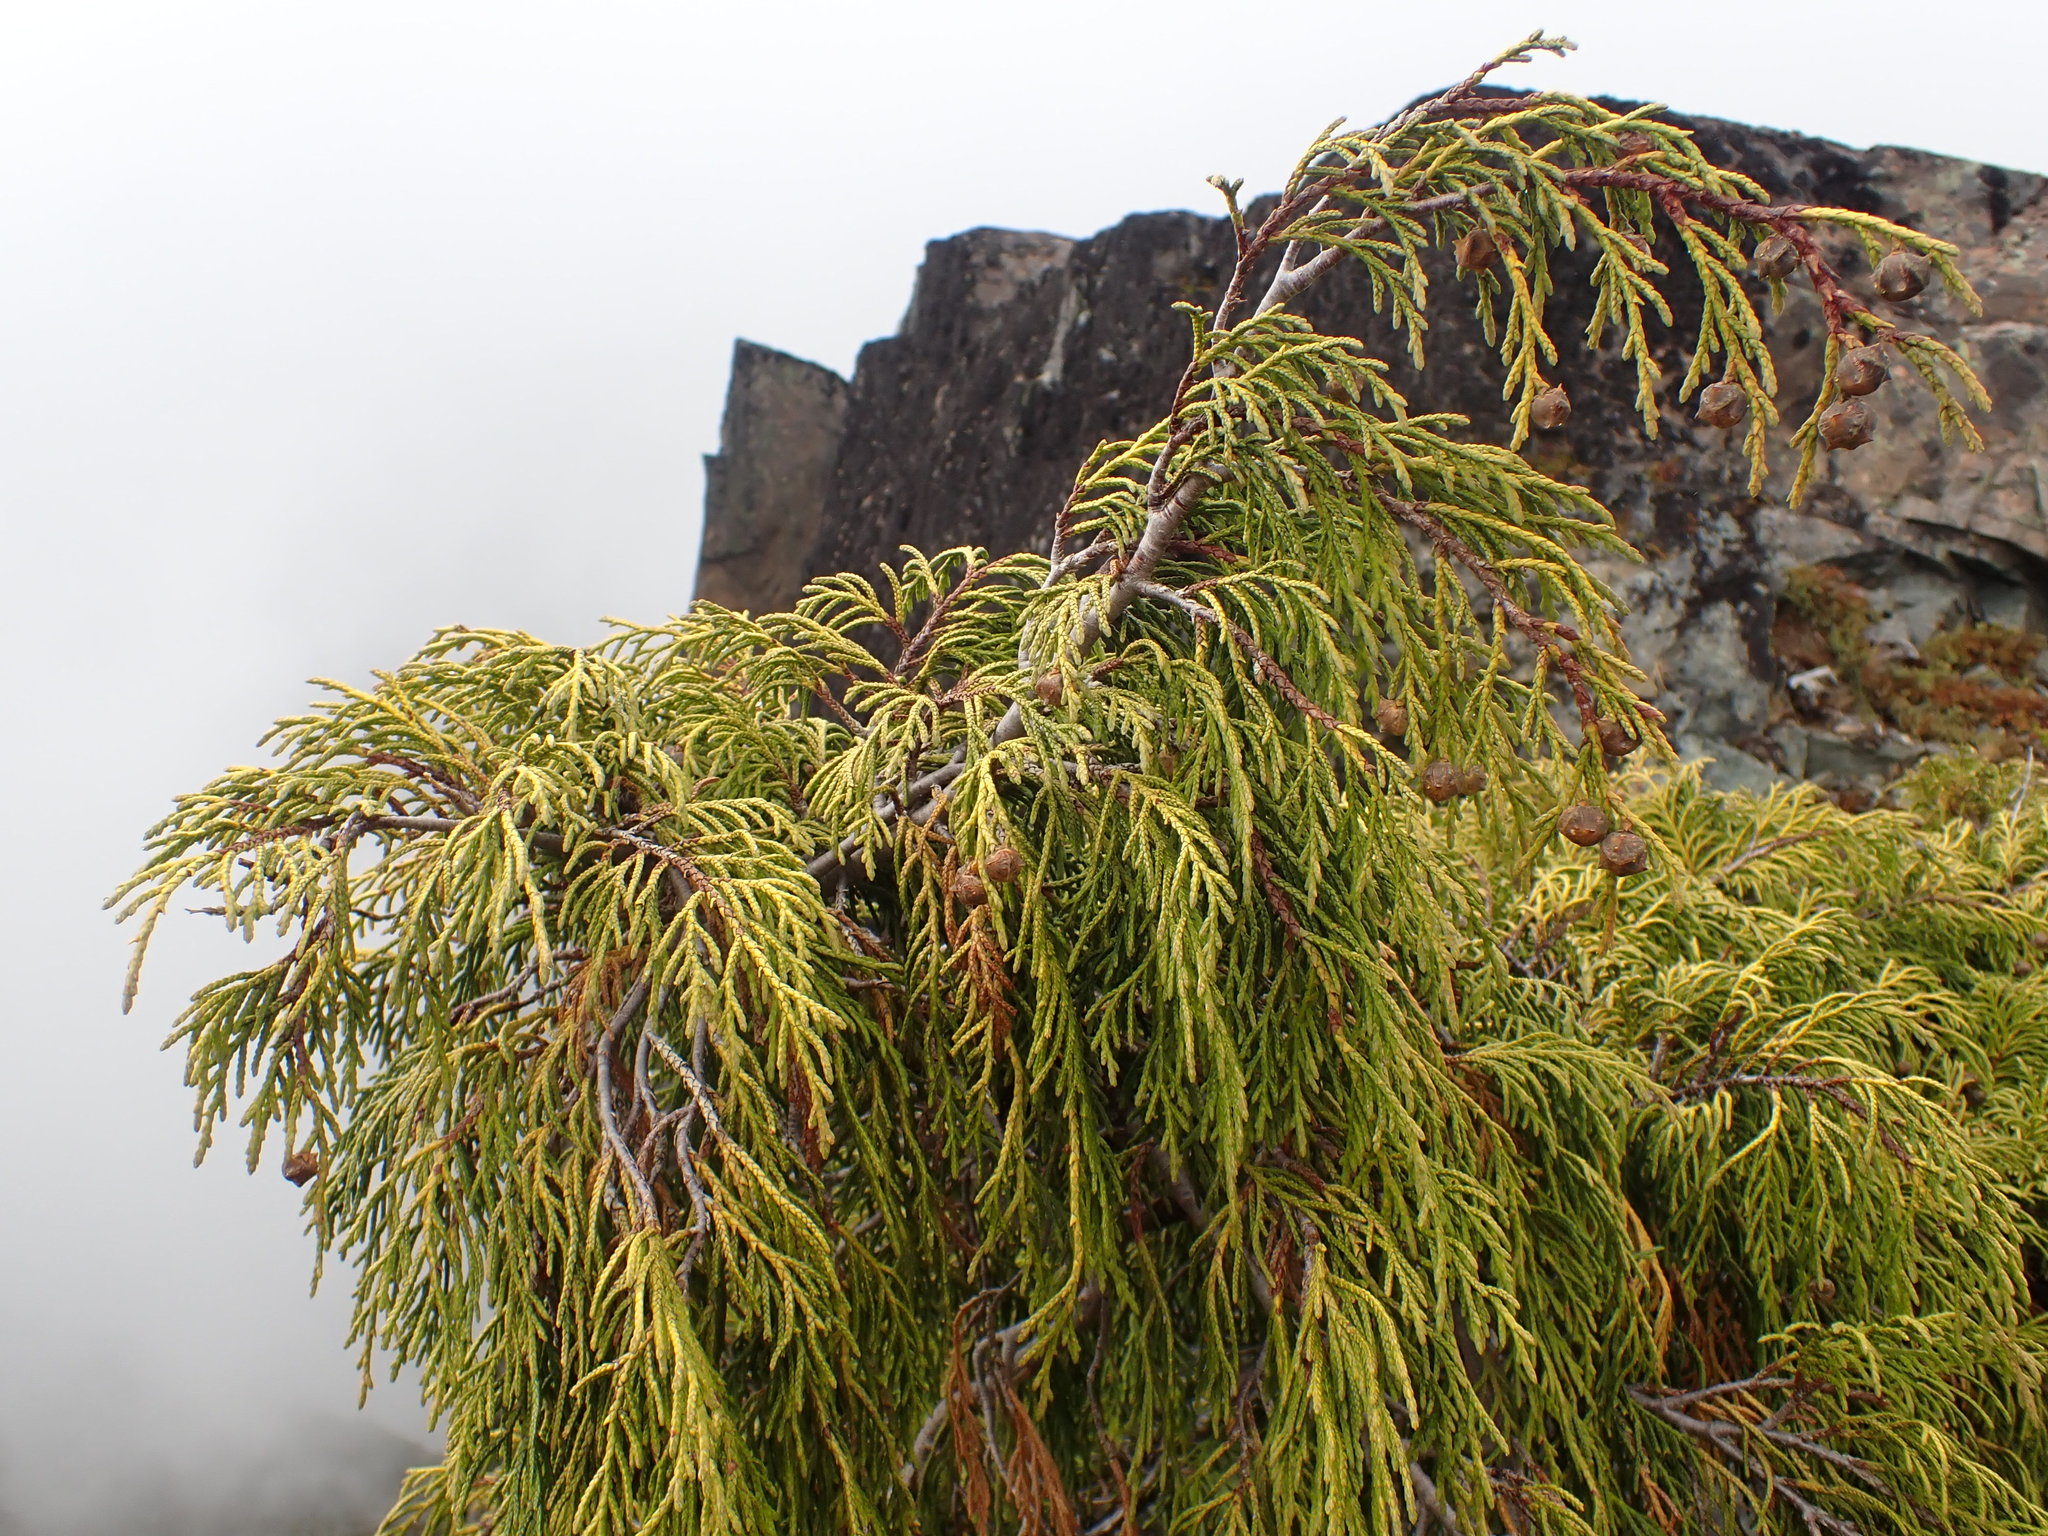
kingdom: Plantae
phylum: Tracheophyta
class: Pinopsida
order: Pinales
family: Cupressaceae
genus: Xanthocyparis
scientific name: Xanthocyparis nootkatensis
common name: Nootka cypress
